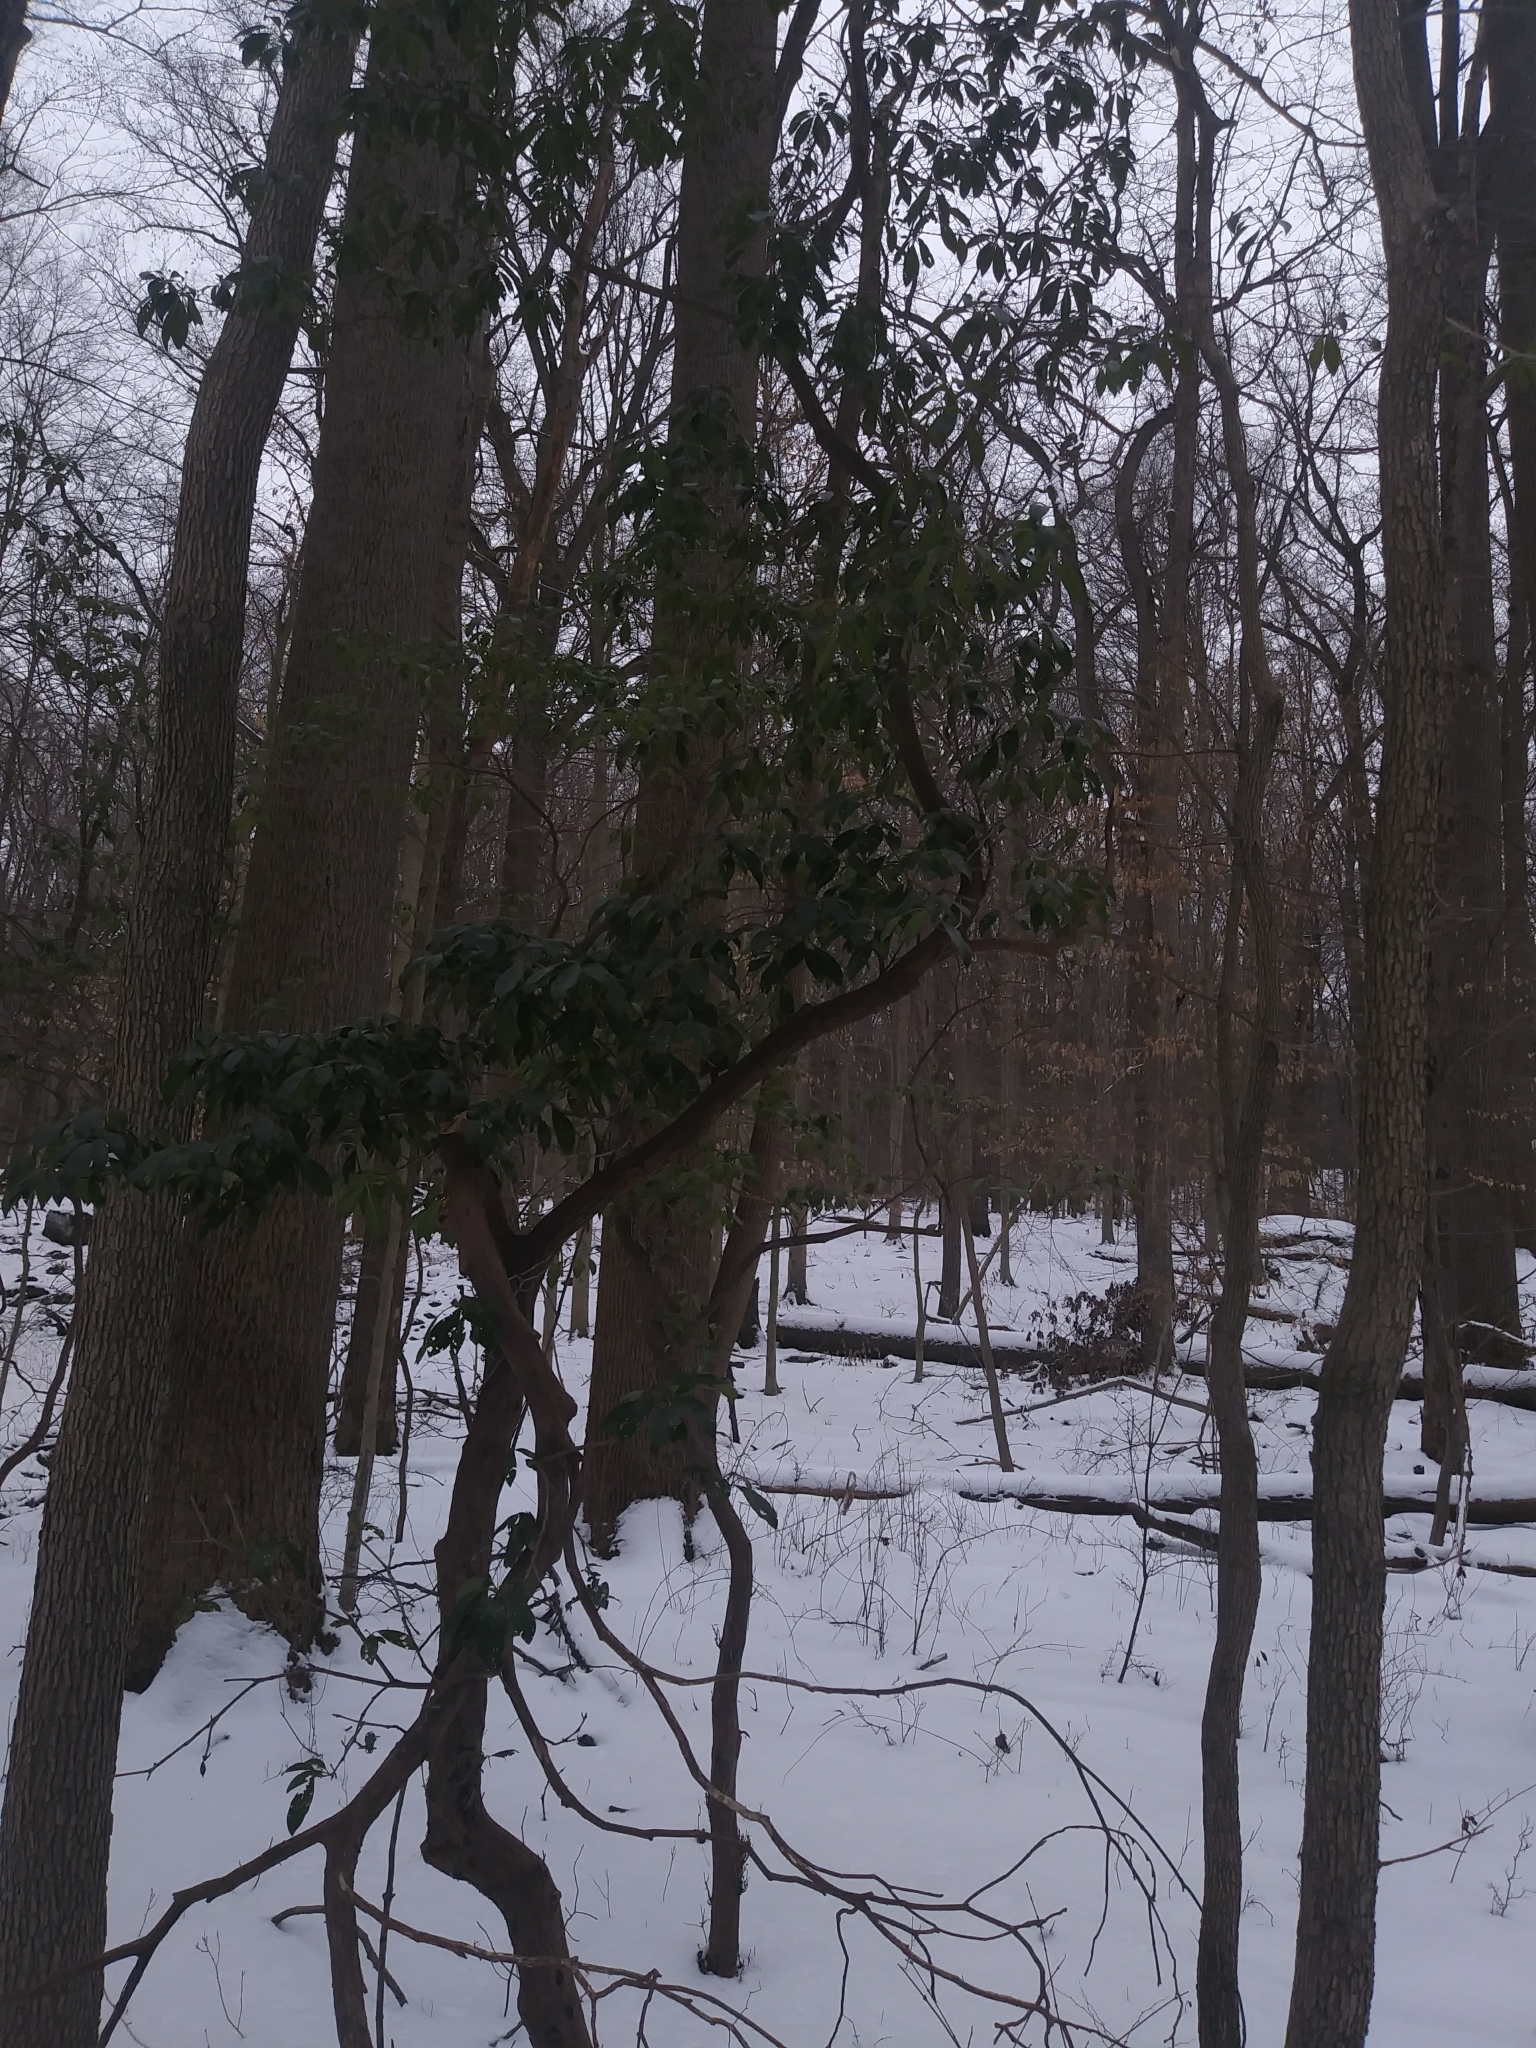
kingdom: Plantae
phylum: Tracheophyta
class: Magnoliopsida
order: Ericales
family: Ericaceae
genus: Kalmia
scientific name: Kalmia latifolia
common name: Mountain-laurel
